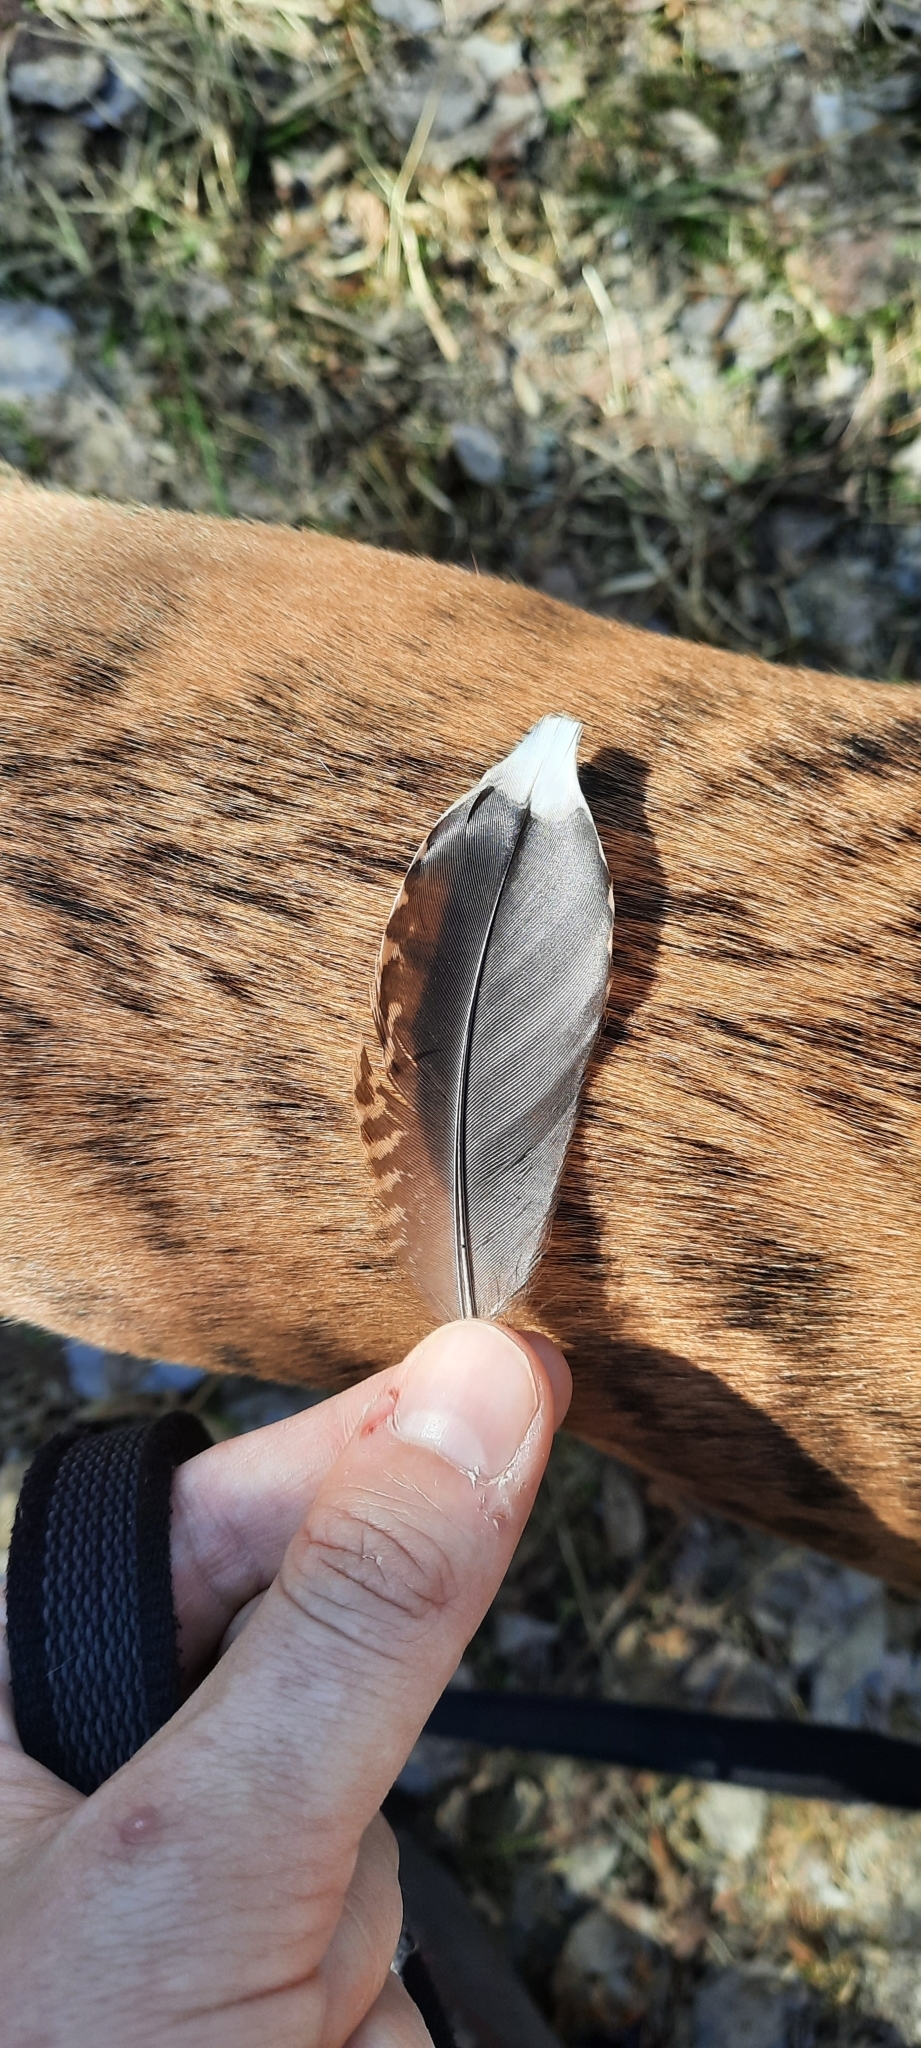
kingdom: Animalia
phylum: Chordata
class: Aves
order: Charadriiformes
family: Scolopacidae
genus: Scolopax
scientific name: Scolopax rusticola
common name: Eurasian woodcock
